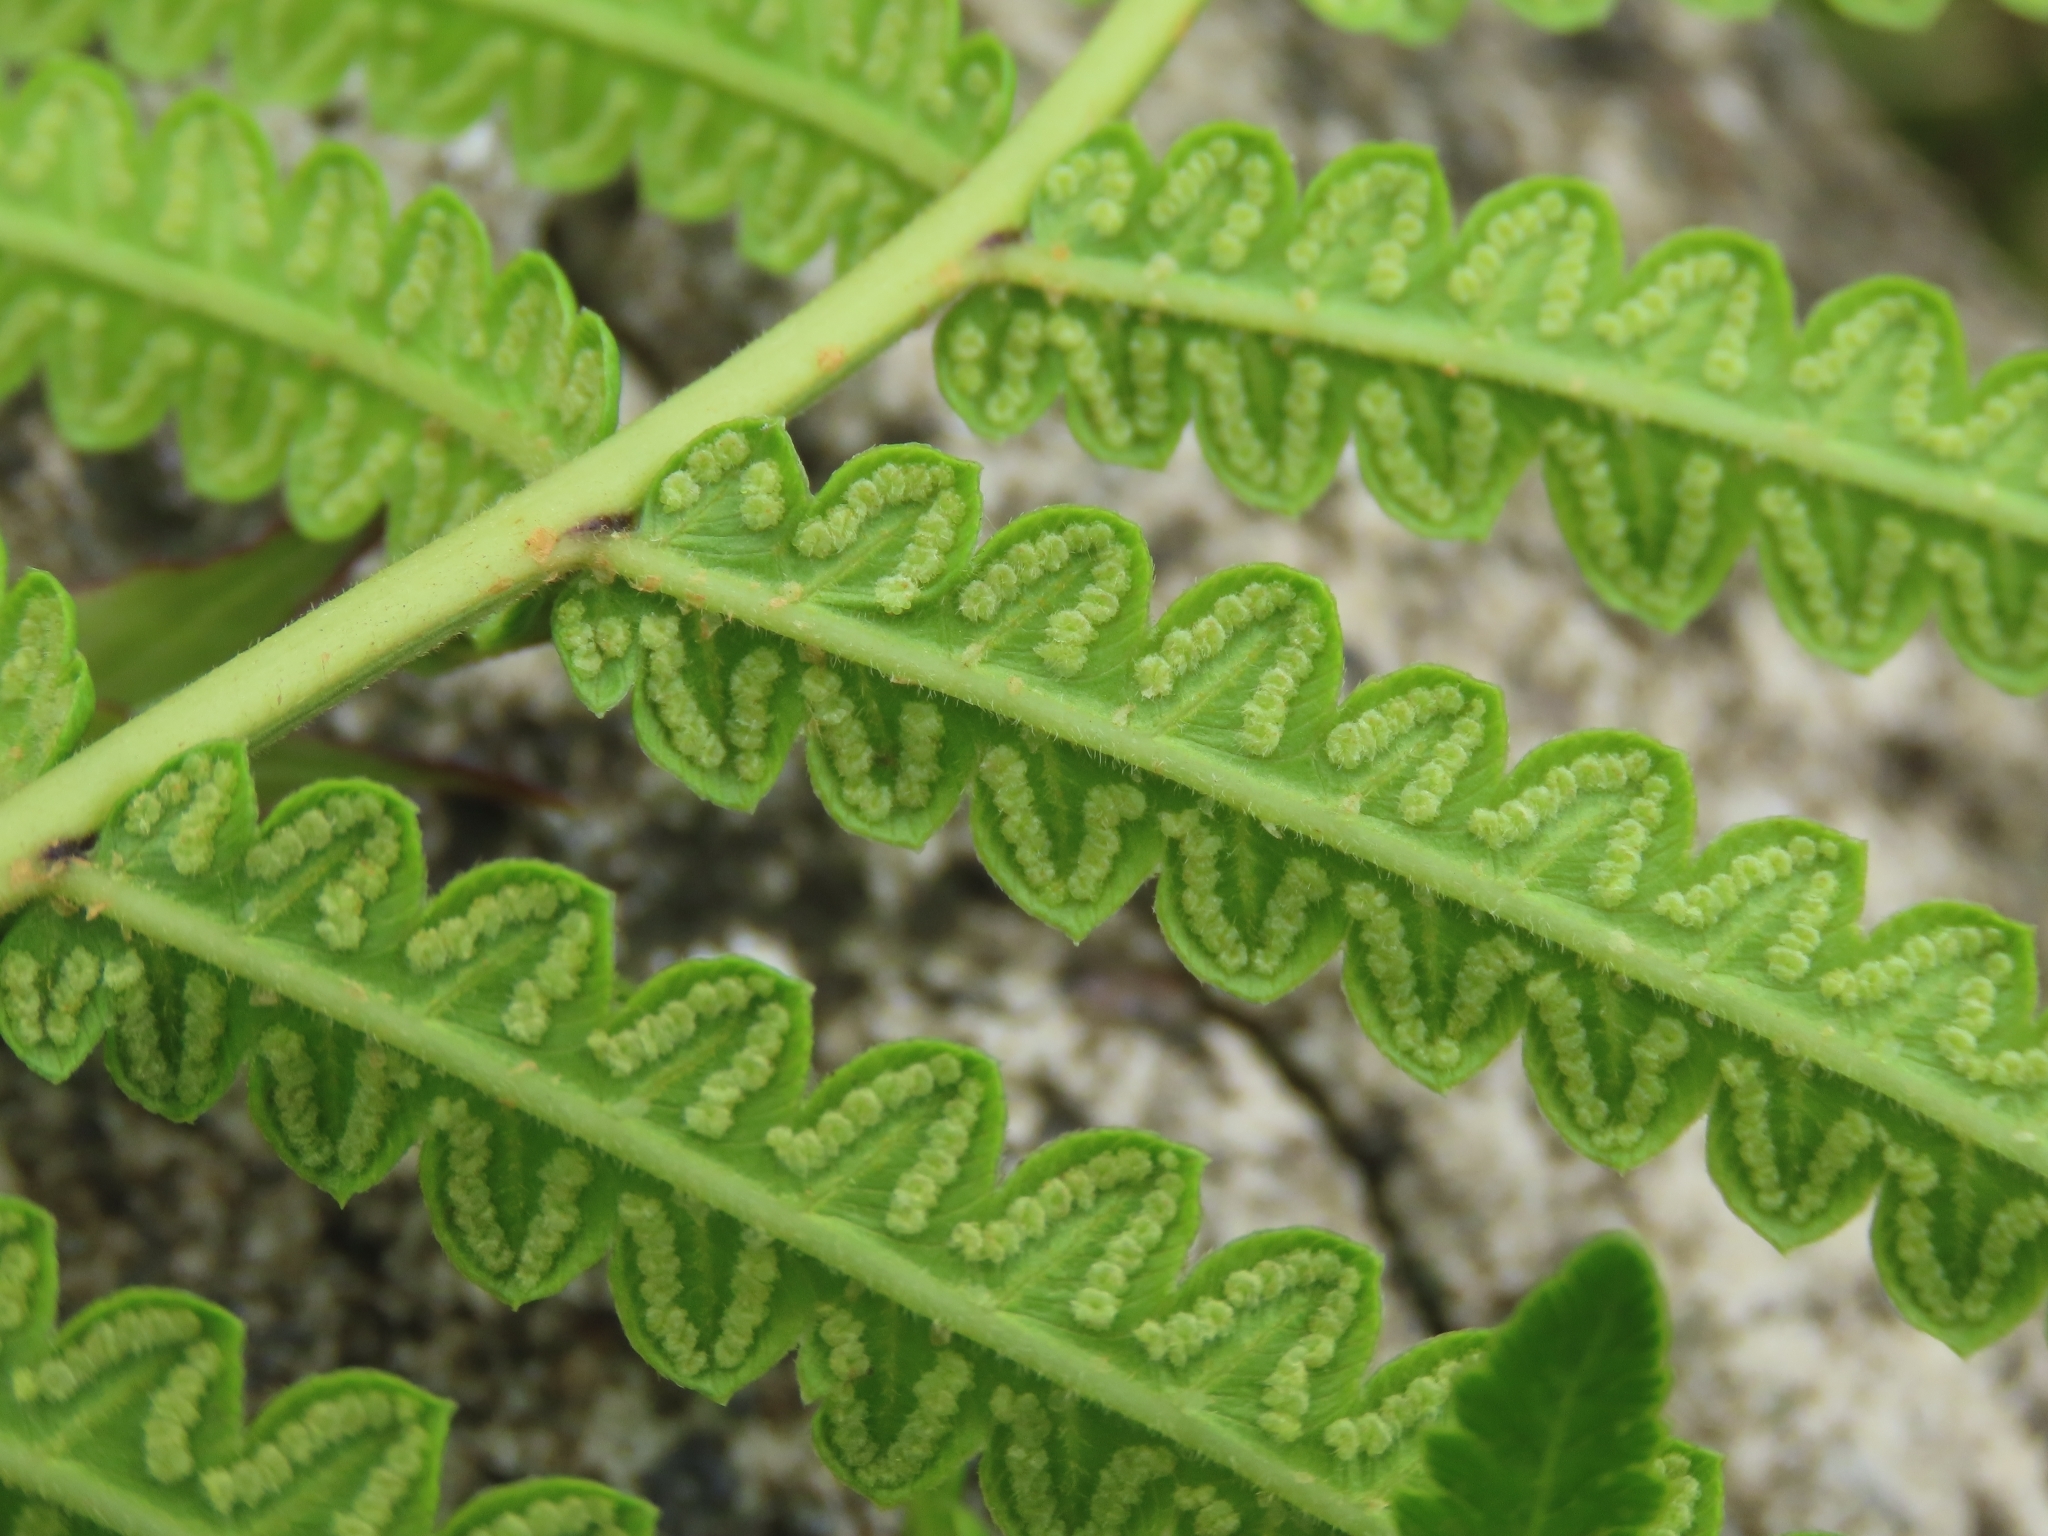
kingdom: Plantae
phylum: Tracheophyta
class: Polypodiopsida
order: Polypodiales
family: Thelypteridaceae
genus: Cyclosorus
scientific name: Cyclosorus interruptus
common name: Neke fern
